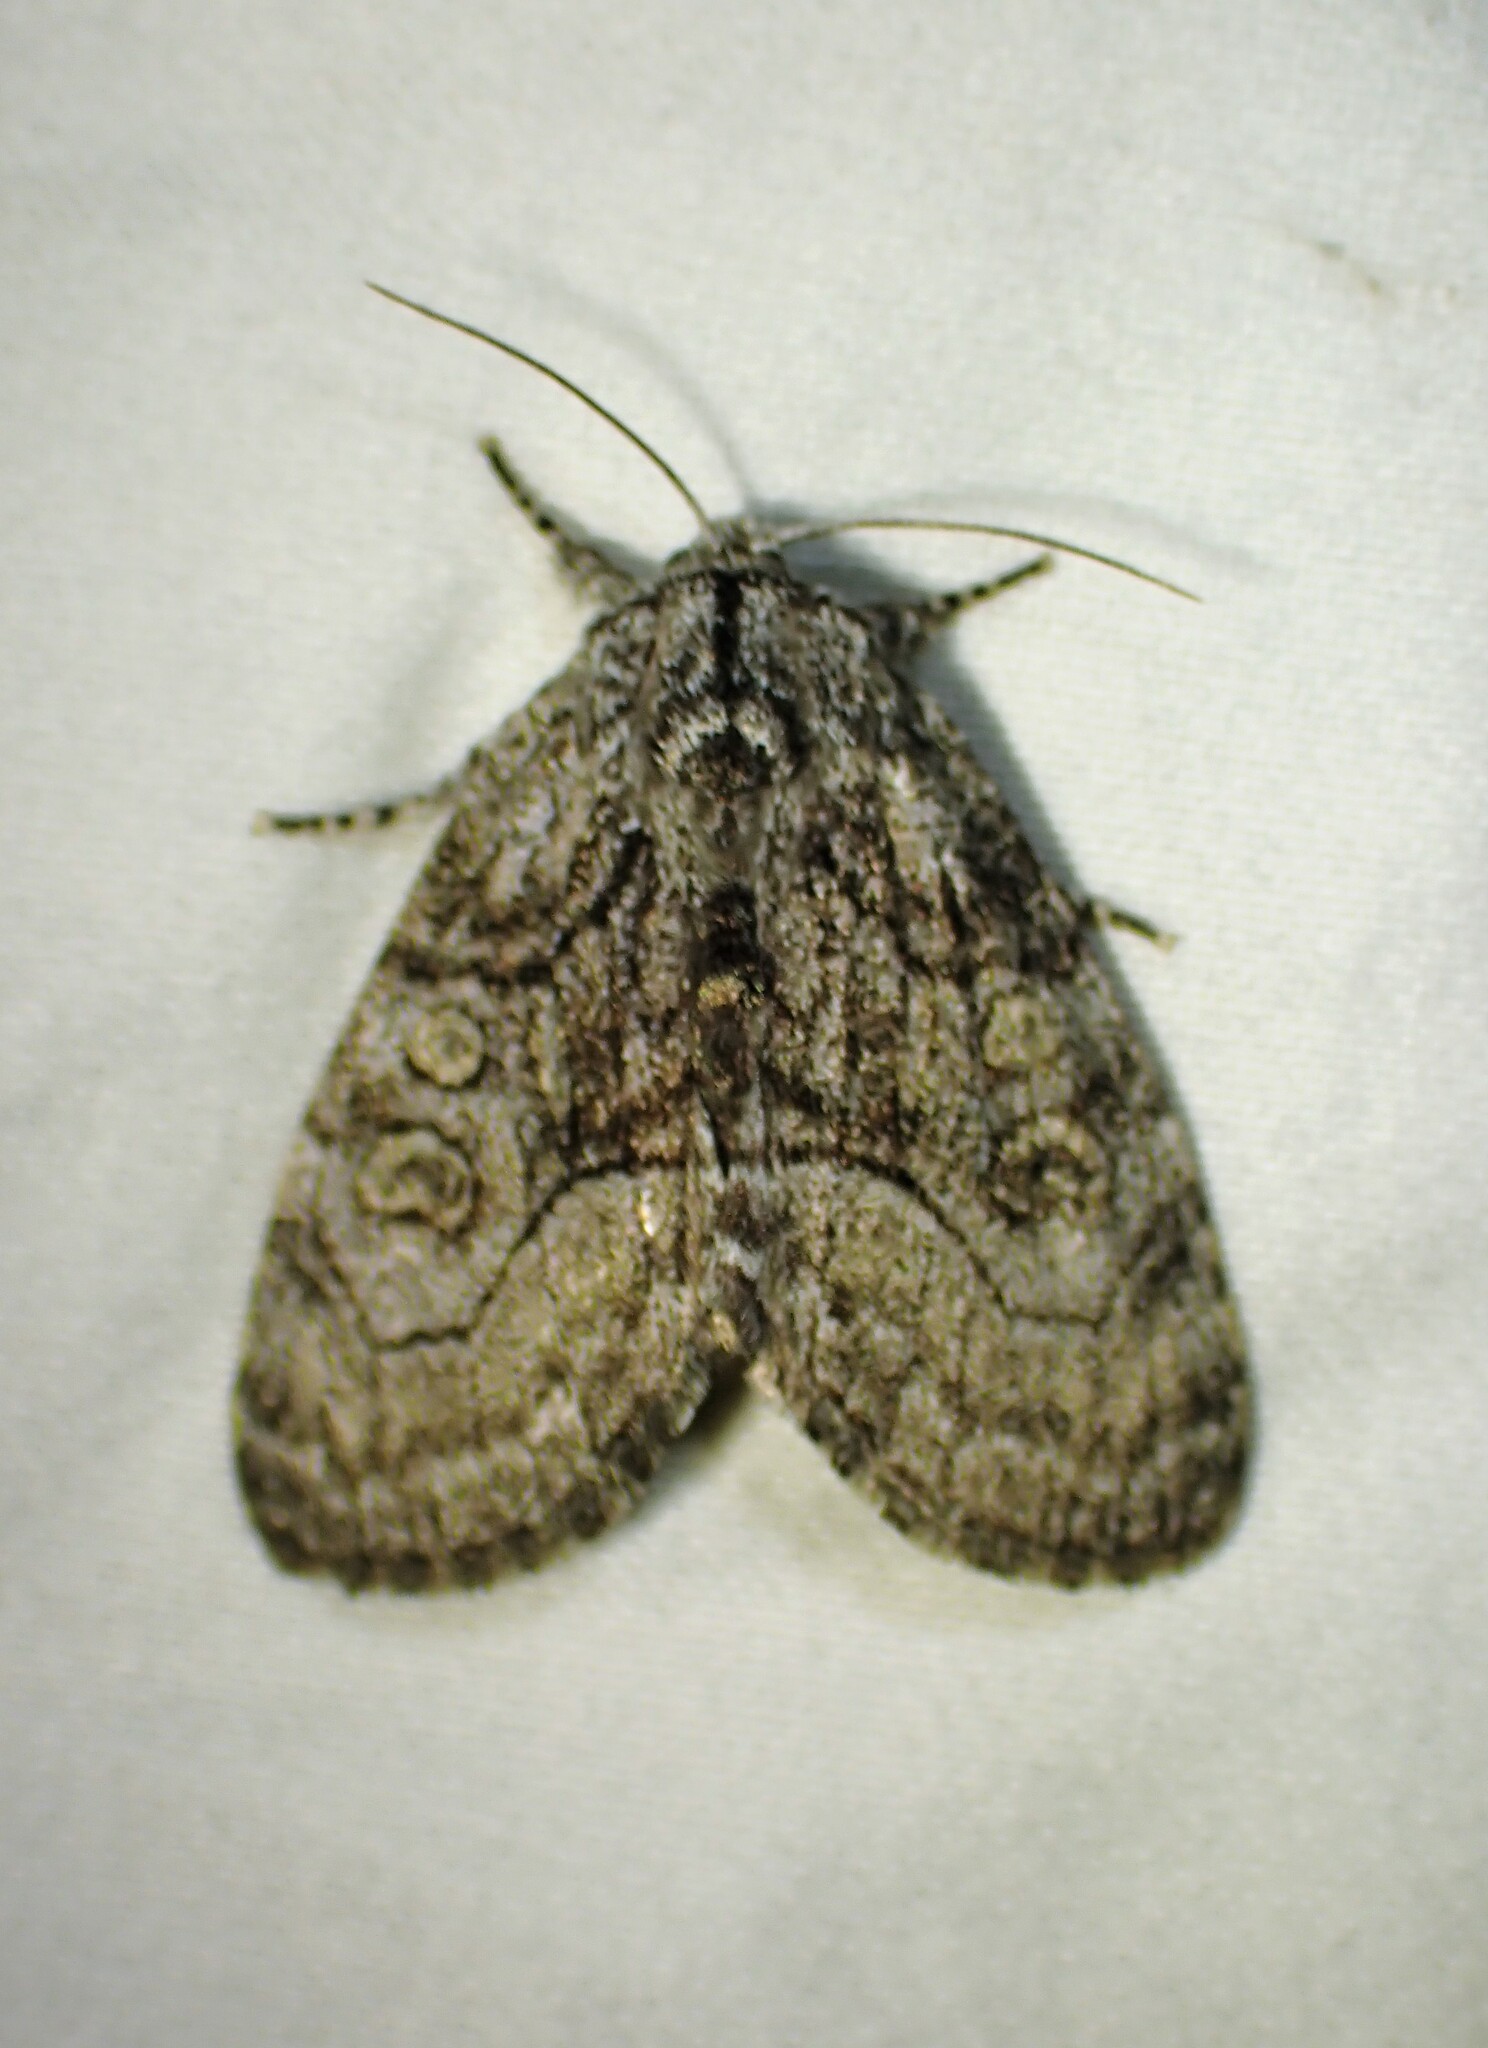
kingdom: Animalia
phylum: Arthropoda
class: Insecta
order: Lepidoptera
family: Noctuidae
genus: Raphia
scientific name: Raphia frater
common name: Brother
